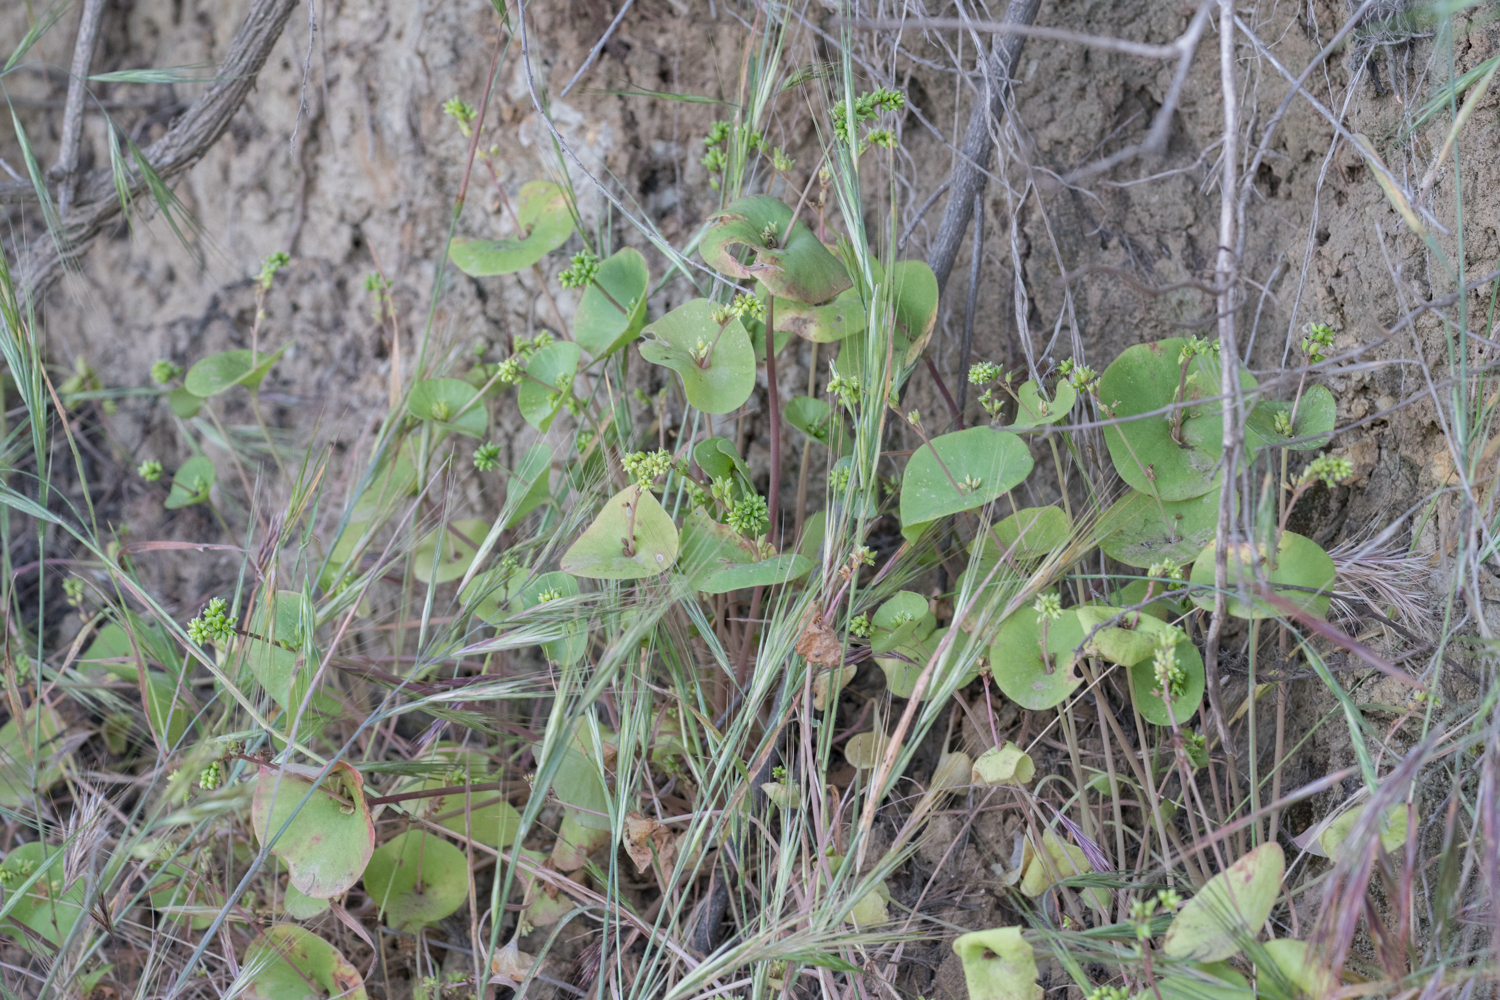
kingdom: Plantae
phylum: Tracheophyta
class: Magnoliopsida
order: Caryophyllales
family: Montiaceae
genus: Claytonia
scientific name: Claytonia perfoliata
